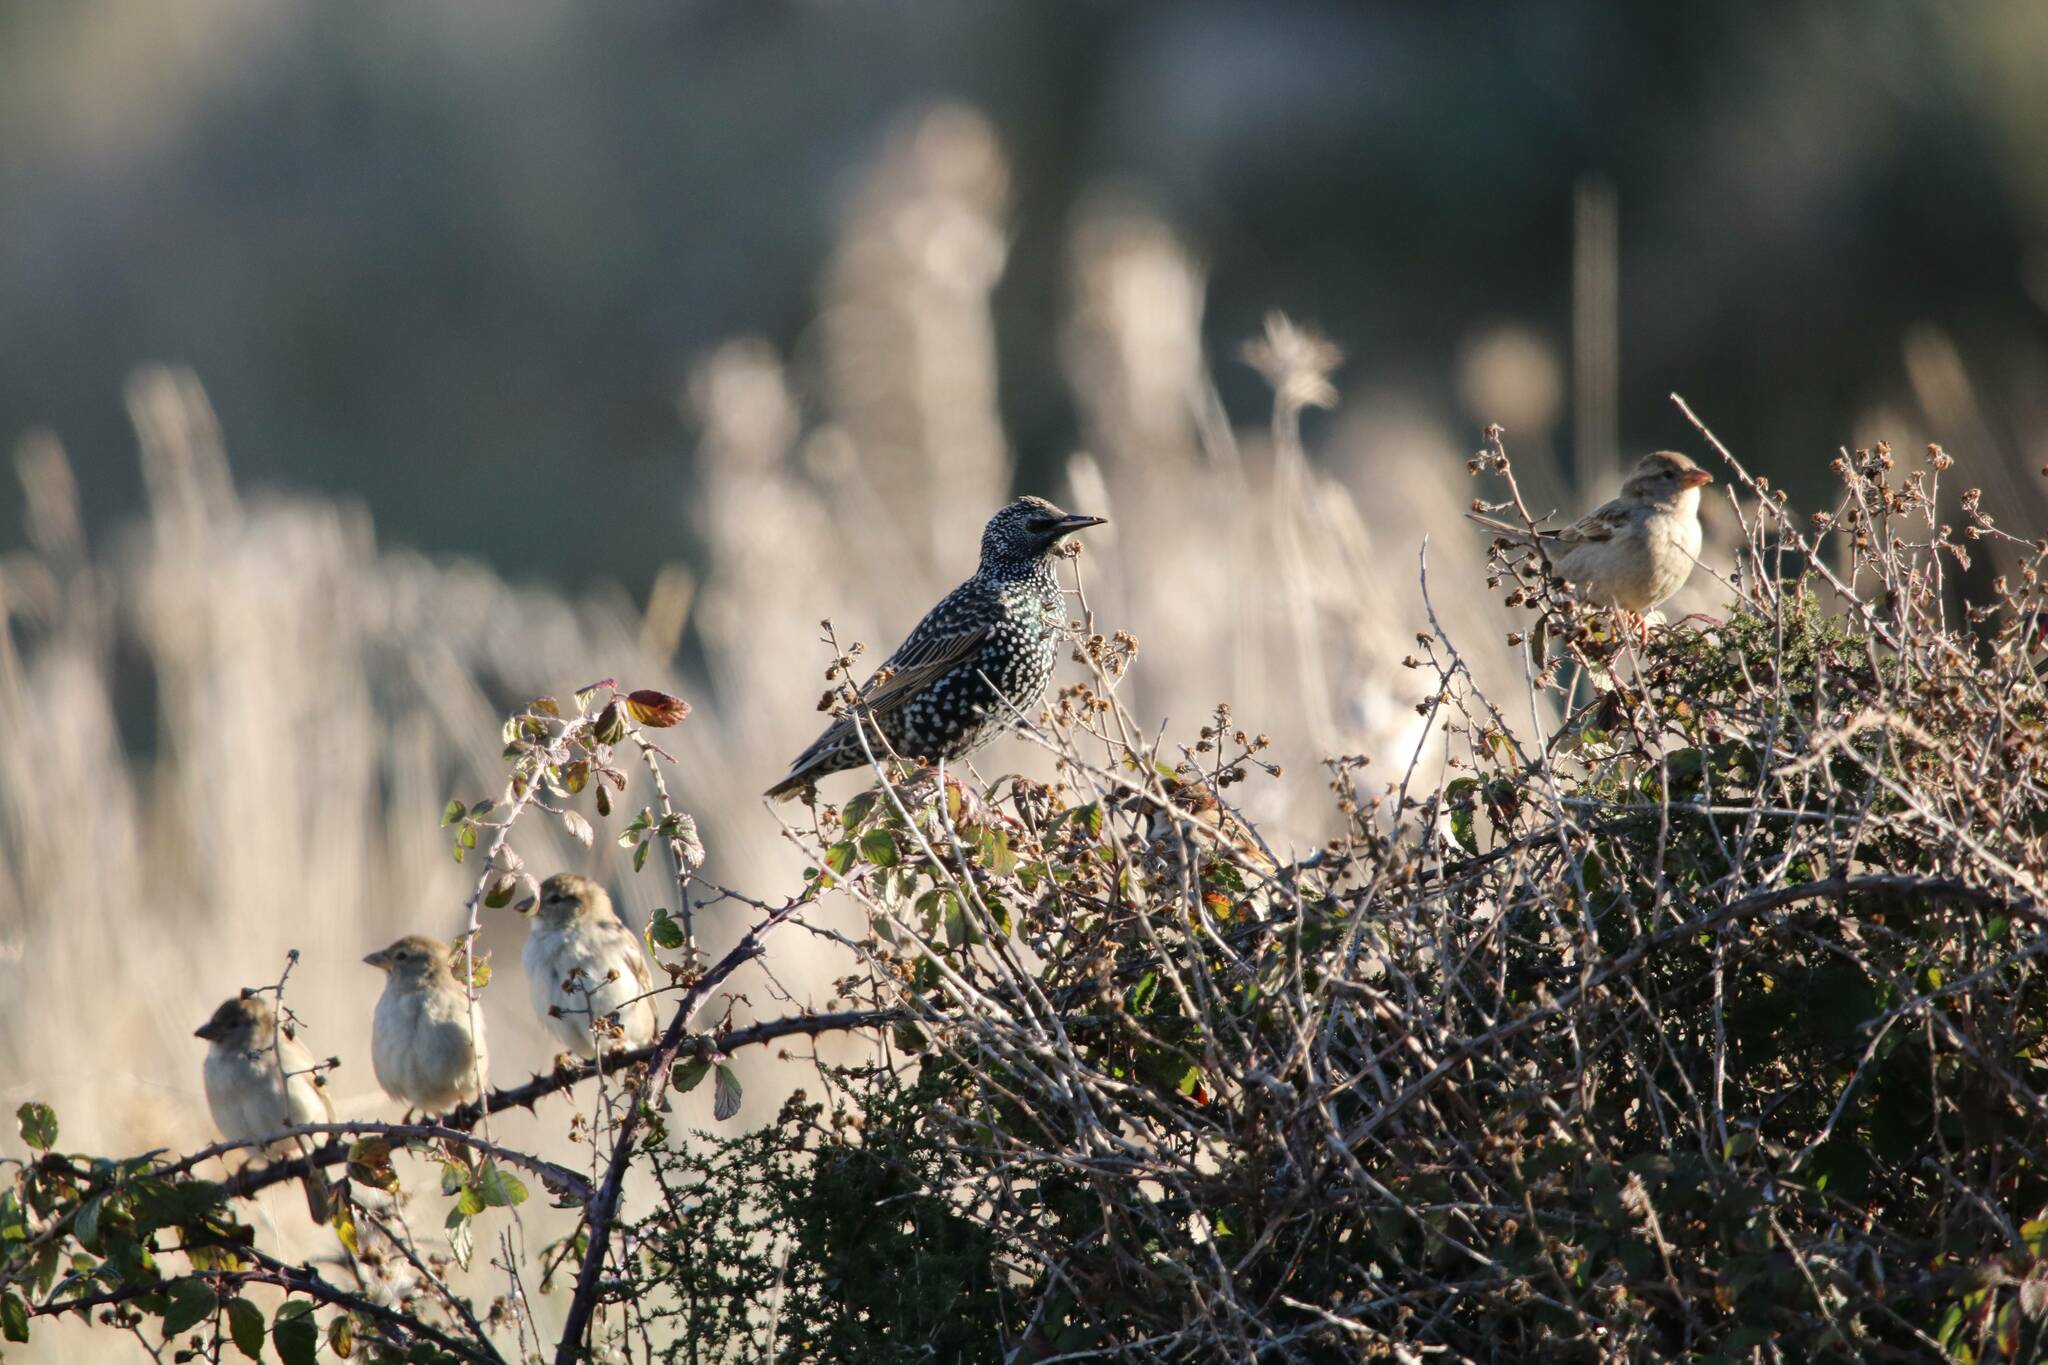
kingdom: Animalia
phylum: Chordata
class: Aves
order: Passeriformes
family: Sturnidae
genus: Sturnus
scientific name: Sturnus vulgaris
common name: Common starling
